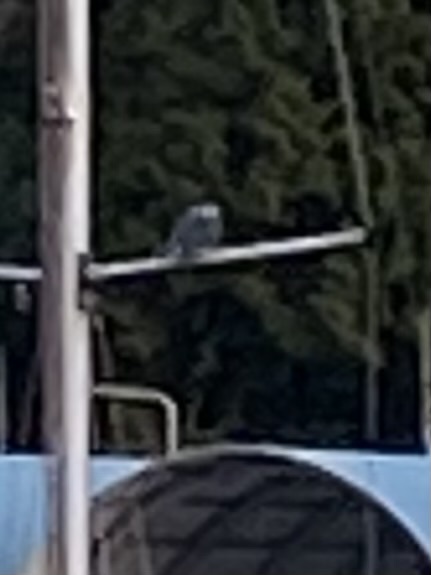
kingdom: Animalia
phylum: Chordata
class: Aves
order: Coraciiformes
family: Alcedinidae
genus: Megaceryle
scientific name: Megaceryle alcyon
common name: Belted kingfisher
